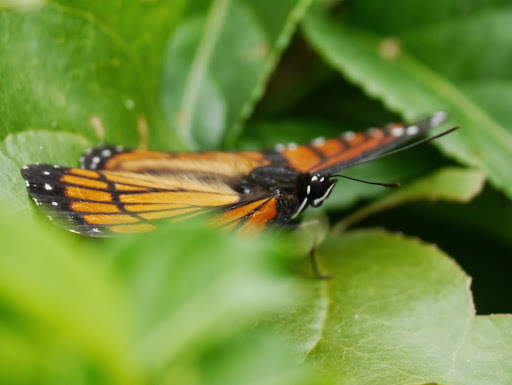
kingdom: Animalia
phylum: Arthropoda
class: Insecta
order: Lepidoptera
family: Nymphalidae
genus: Limenitis
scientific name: Limenitis archippus
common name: Viceroy
